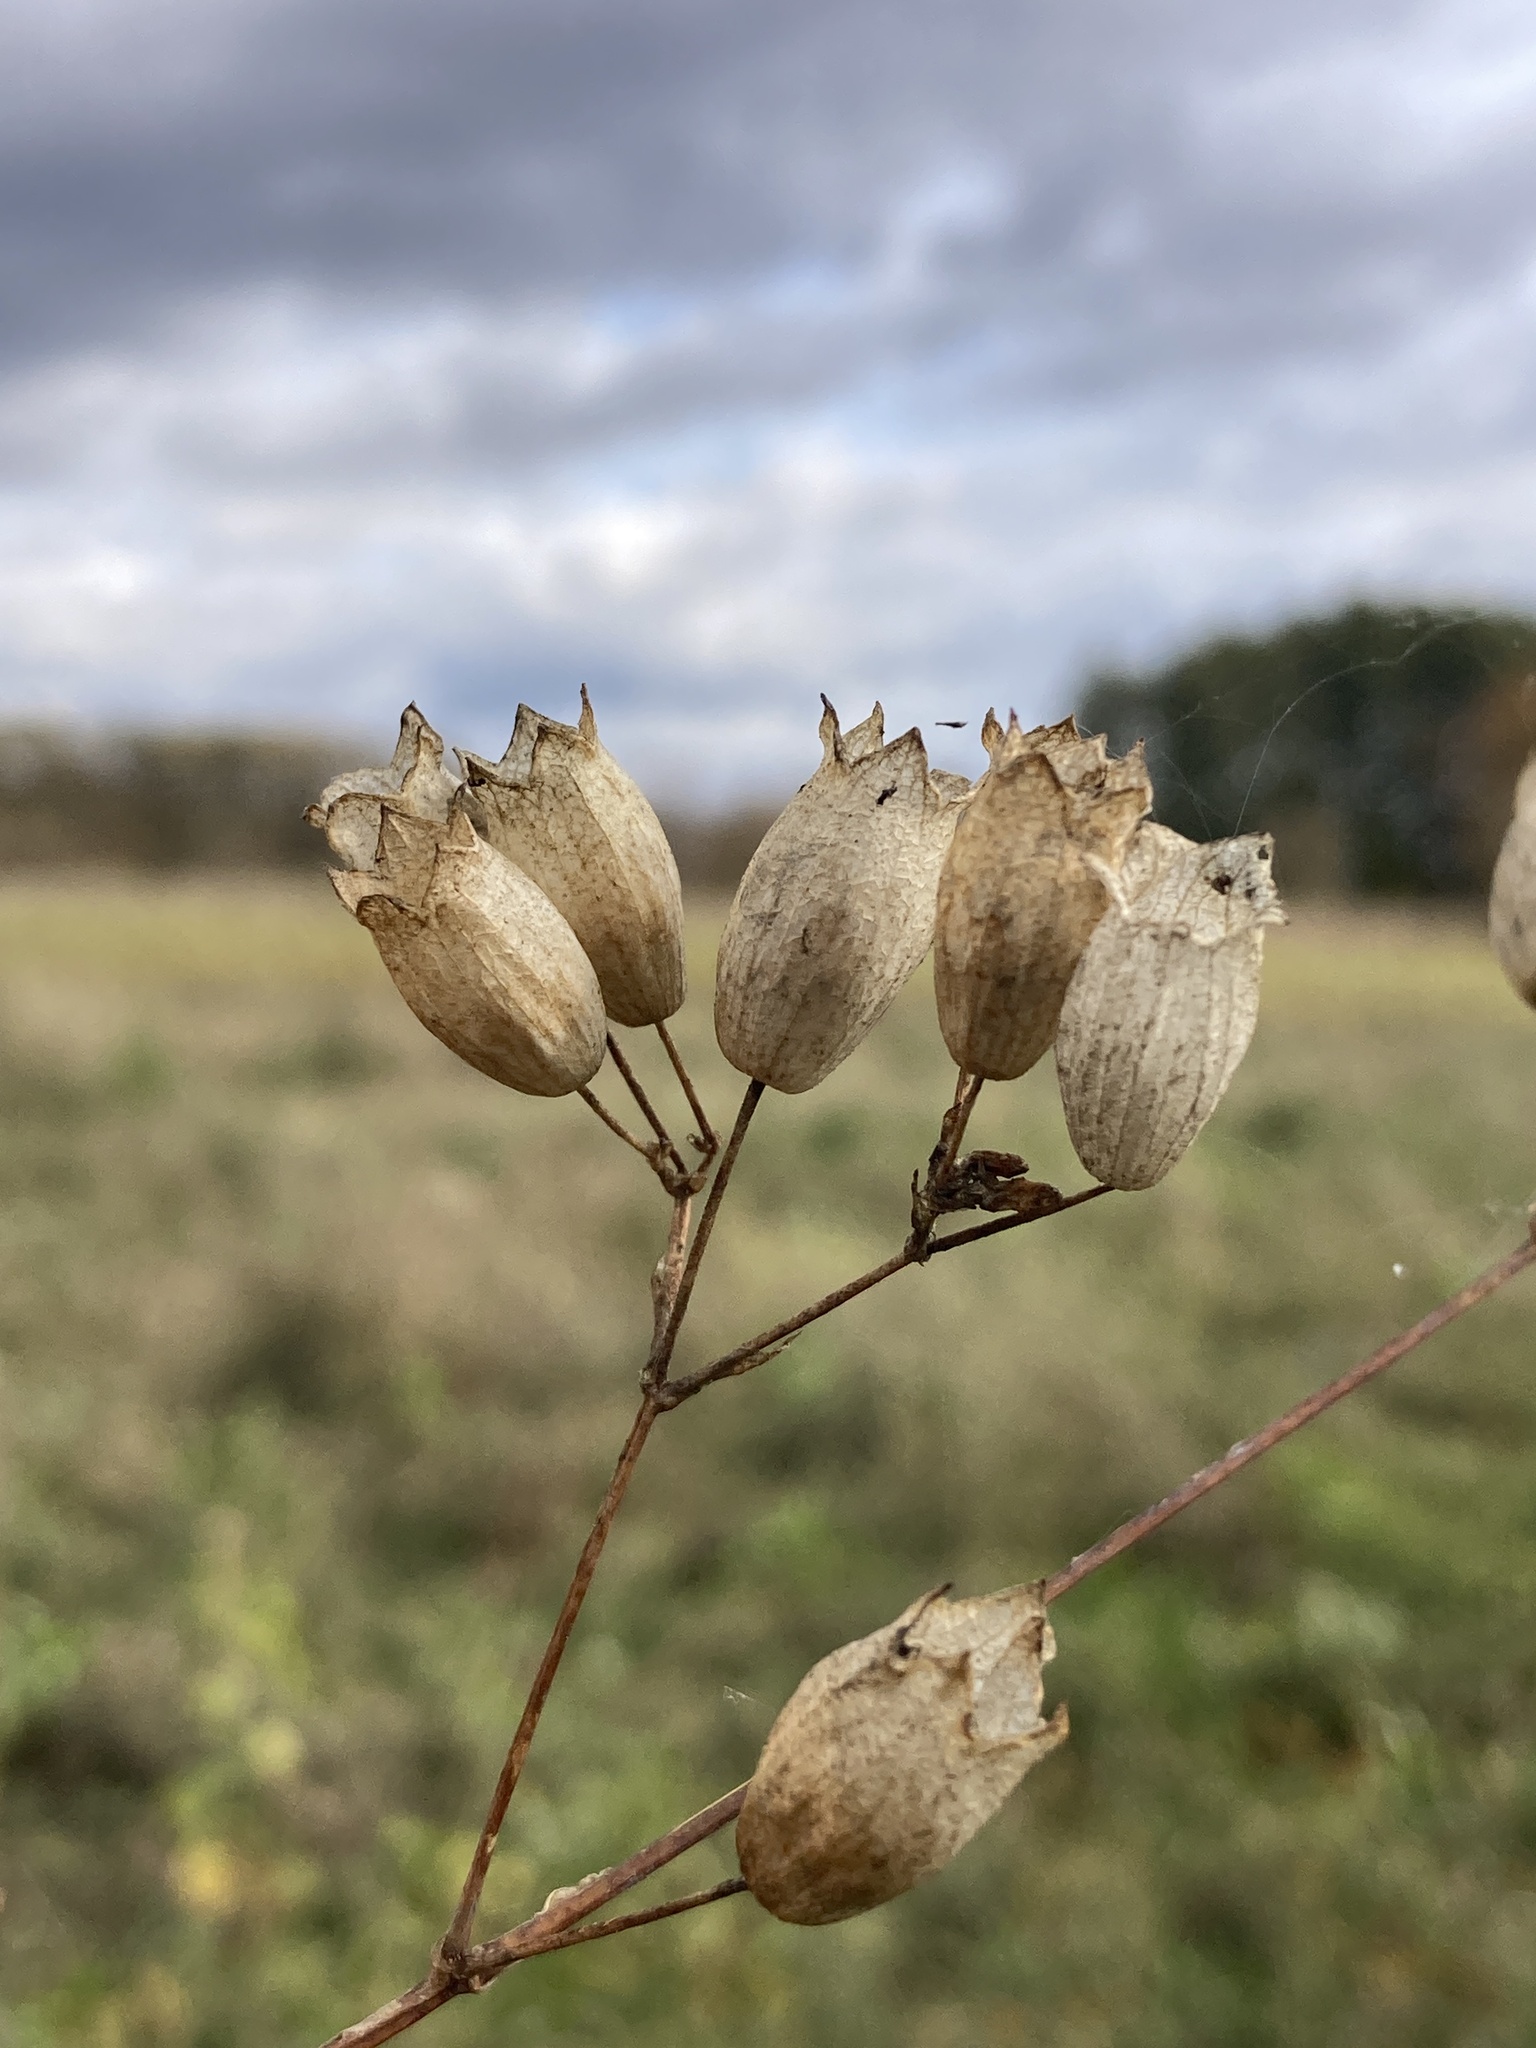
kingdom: Plantae
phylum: Tracheophyta
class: Magnoliopsida
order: Caryophyllales
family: Caryophyllaceae
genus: Silene
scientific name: Silene vulgaris
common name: Bladder campion
